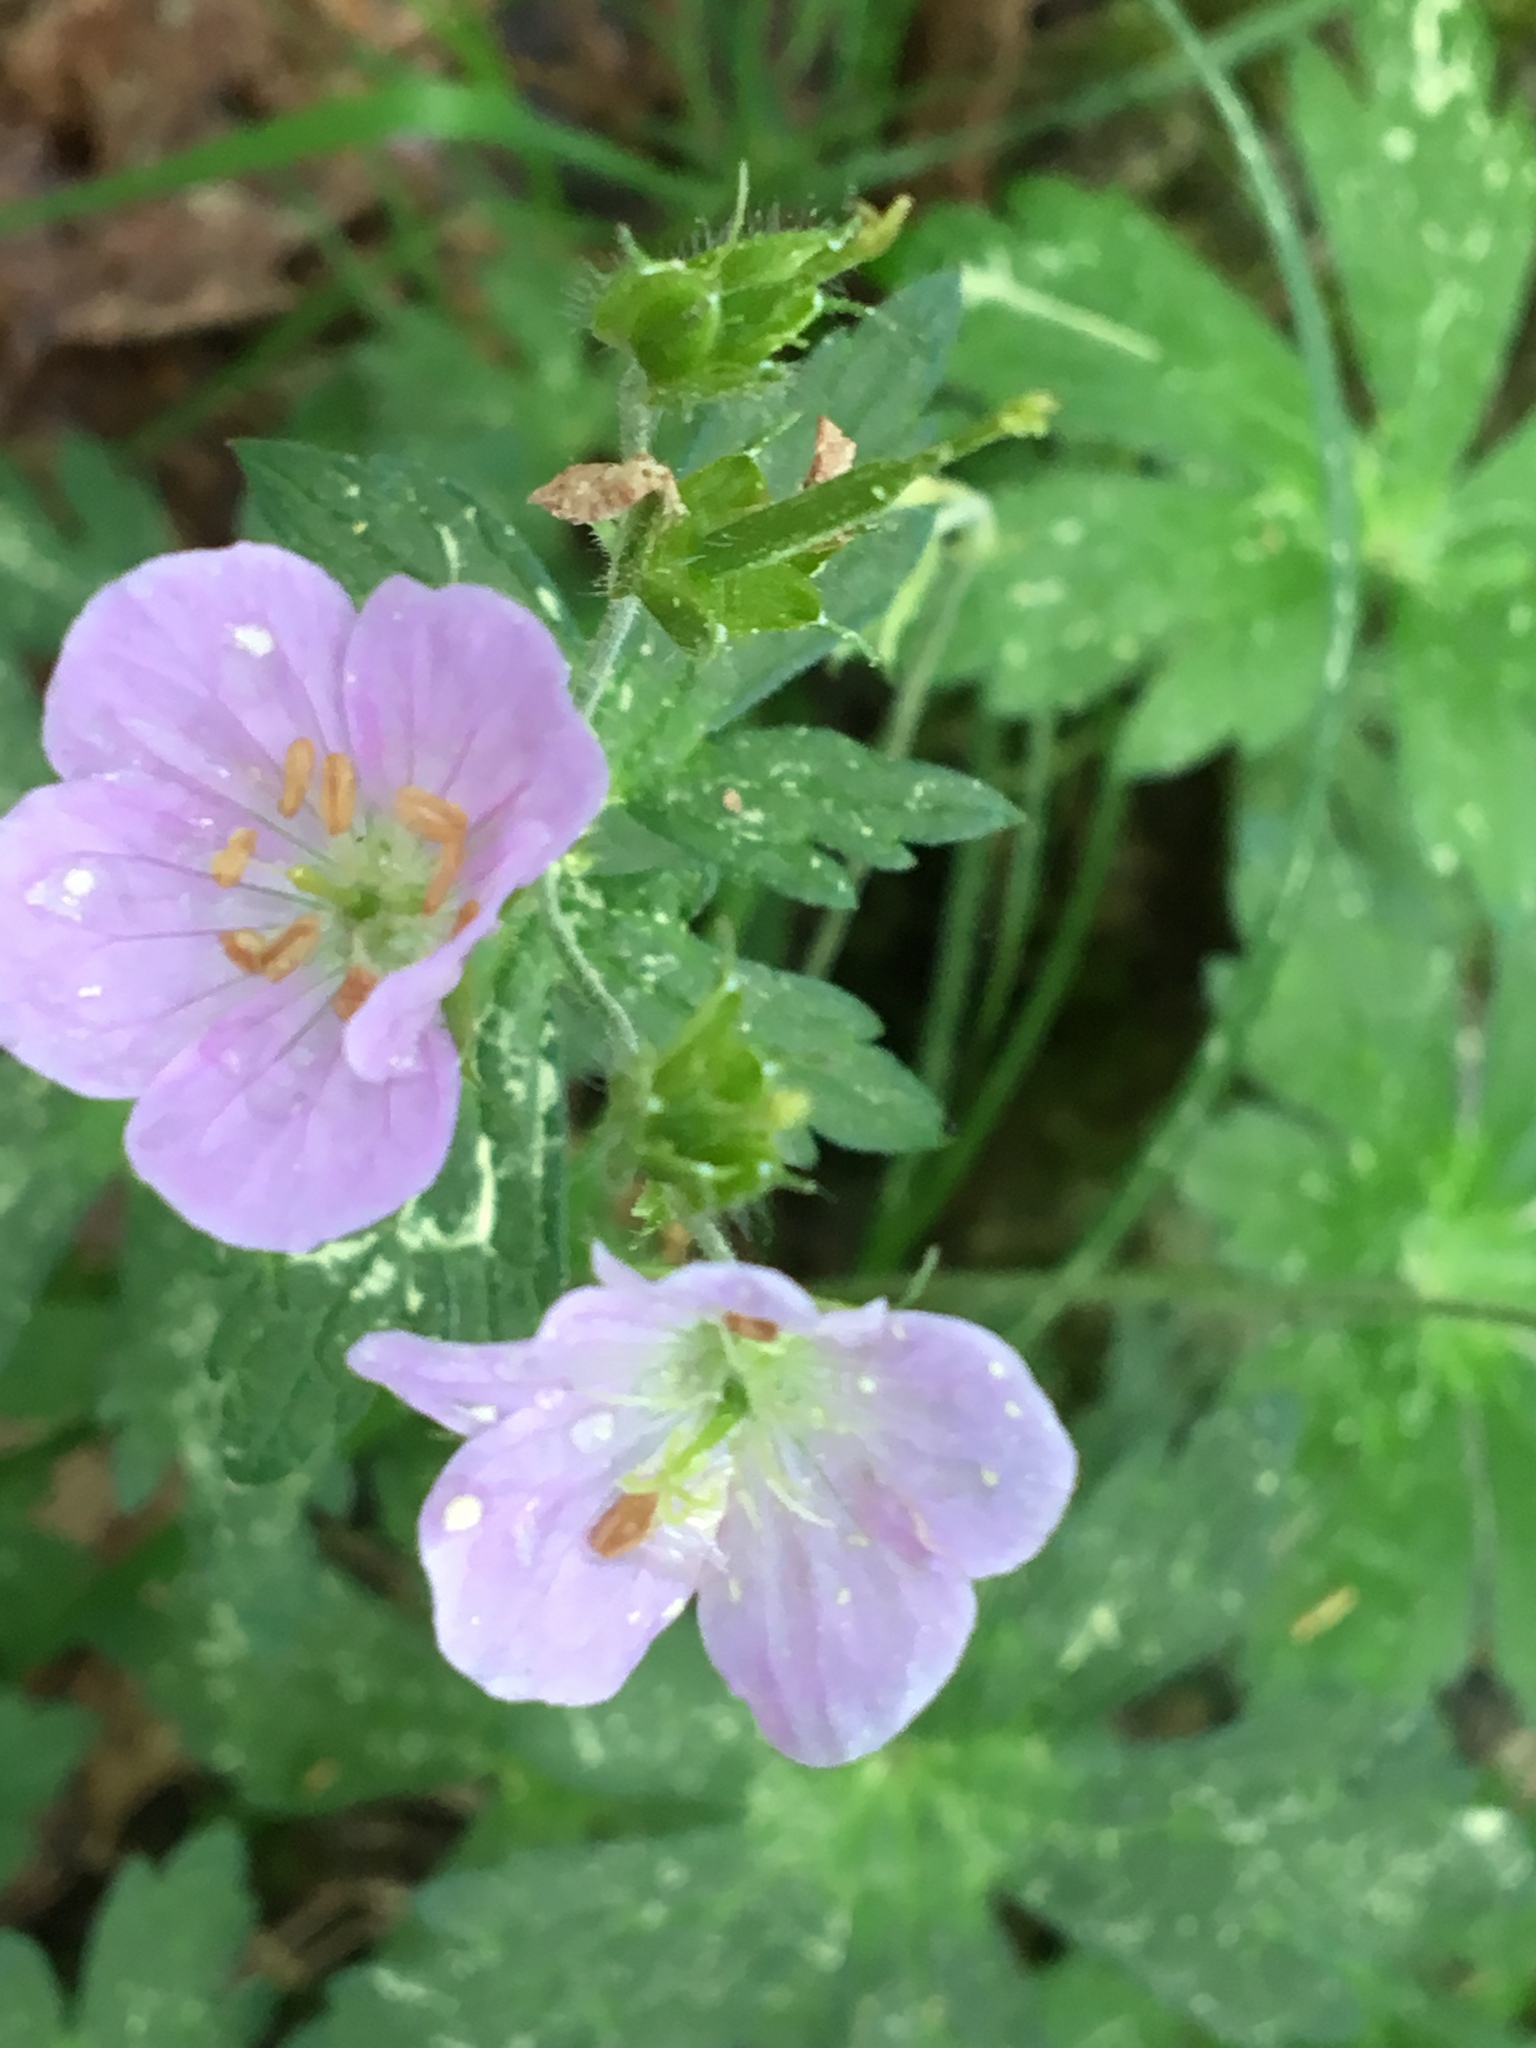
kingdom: Plantae
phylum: Tracheophyta
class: Magnoliopsida
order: Geraniales
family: Geraniaceae
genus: Geranium
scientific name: Geranium maculatum
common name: Spotted geranium
